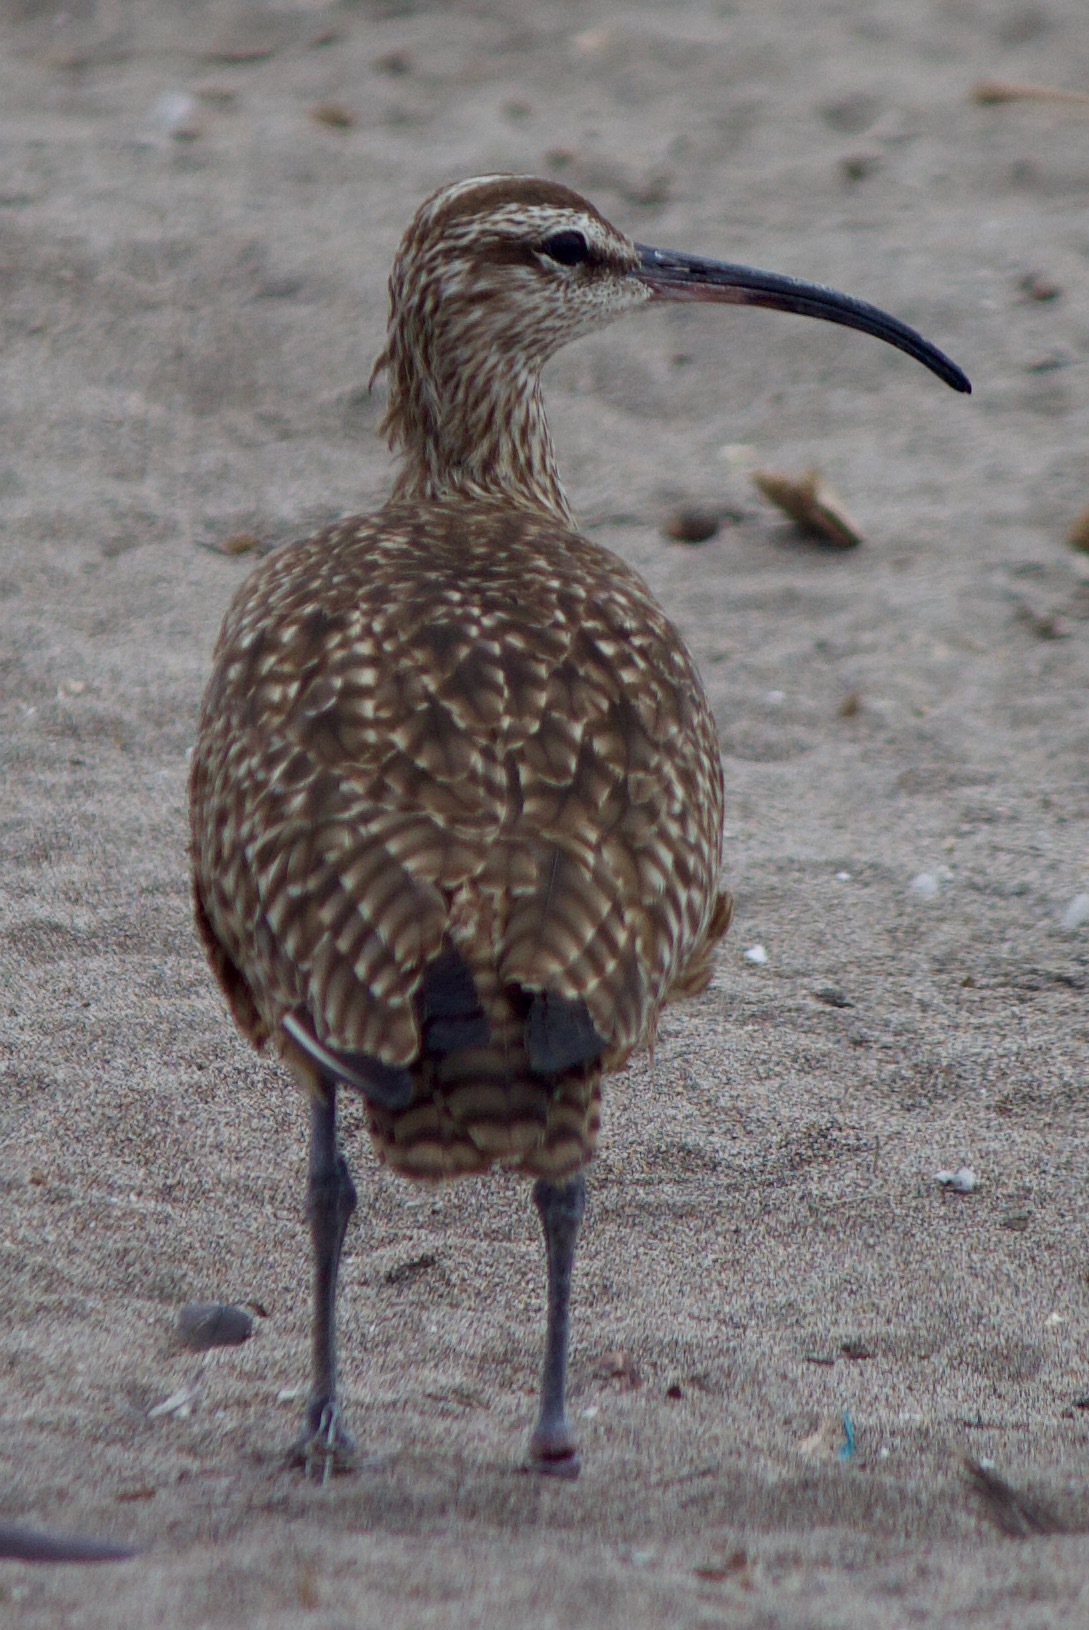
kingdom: Animalia
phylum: Chordata
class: Aves
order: Charadriiformes
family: Scolopacidae
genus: Numenius
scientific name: Numenius phaeopus
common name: Whimbrel
